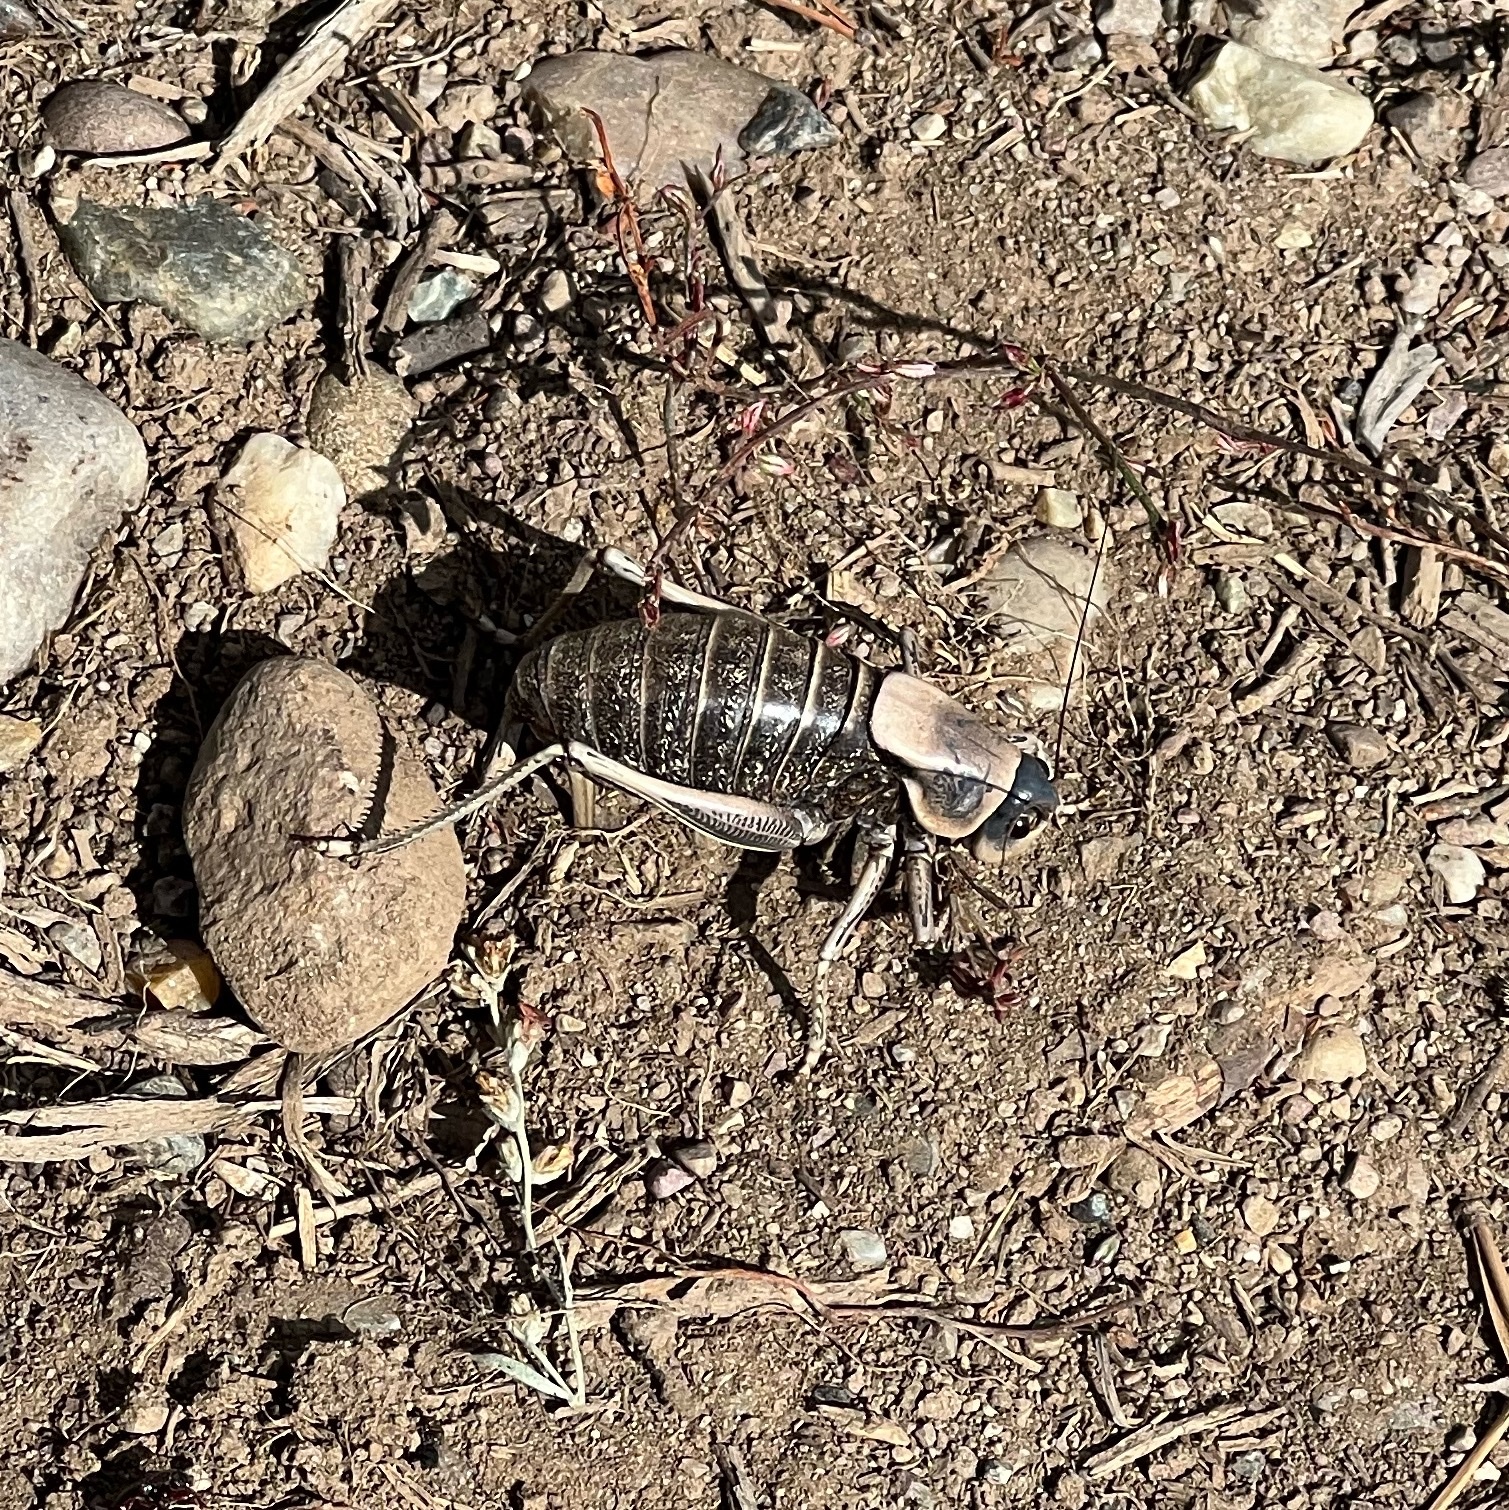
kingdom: Animalia
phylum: Arthropoda
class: Insecta
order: Orthoptera
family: Tettigoniidae
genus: Anabrus
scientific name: Anabrus simplex
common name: Mormon cricket
